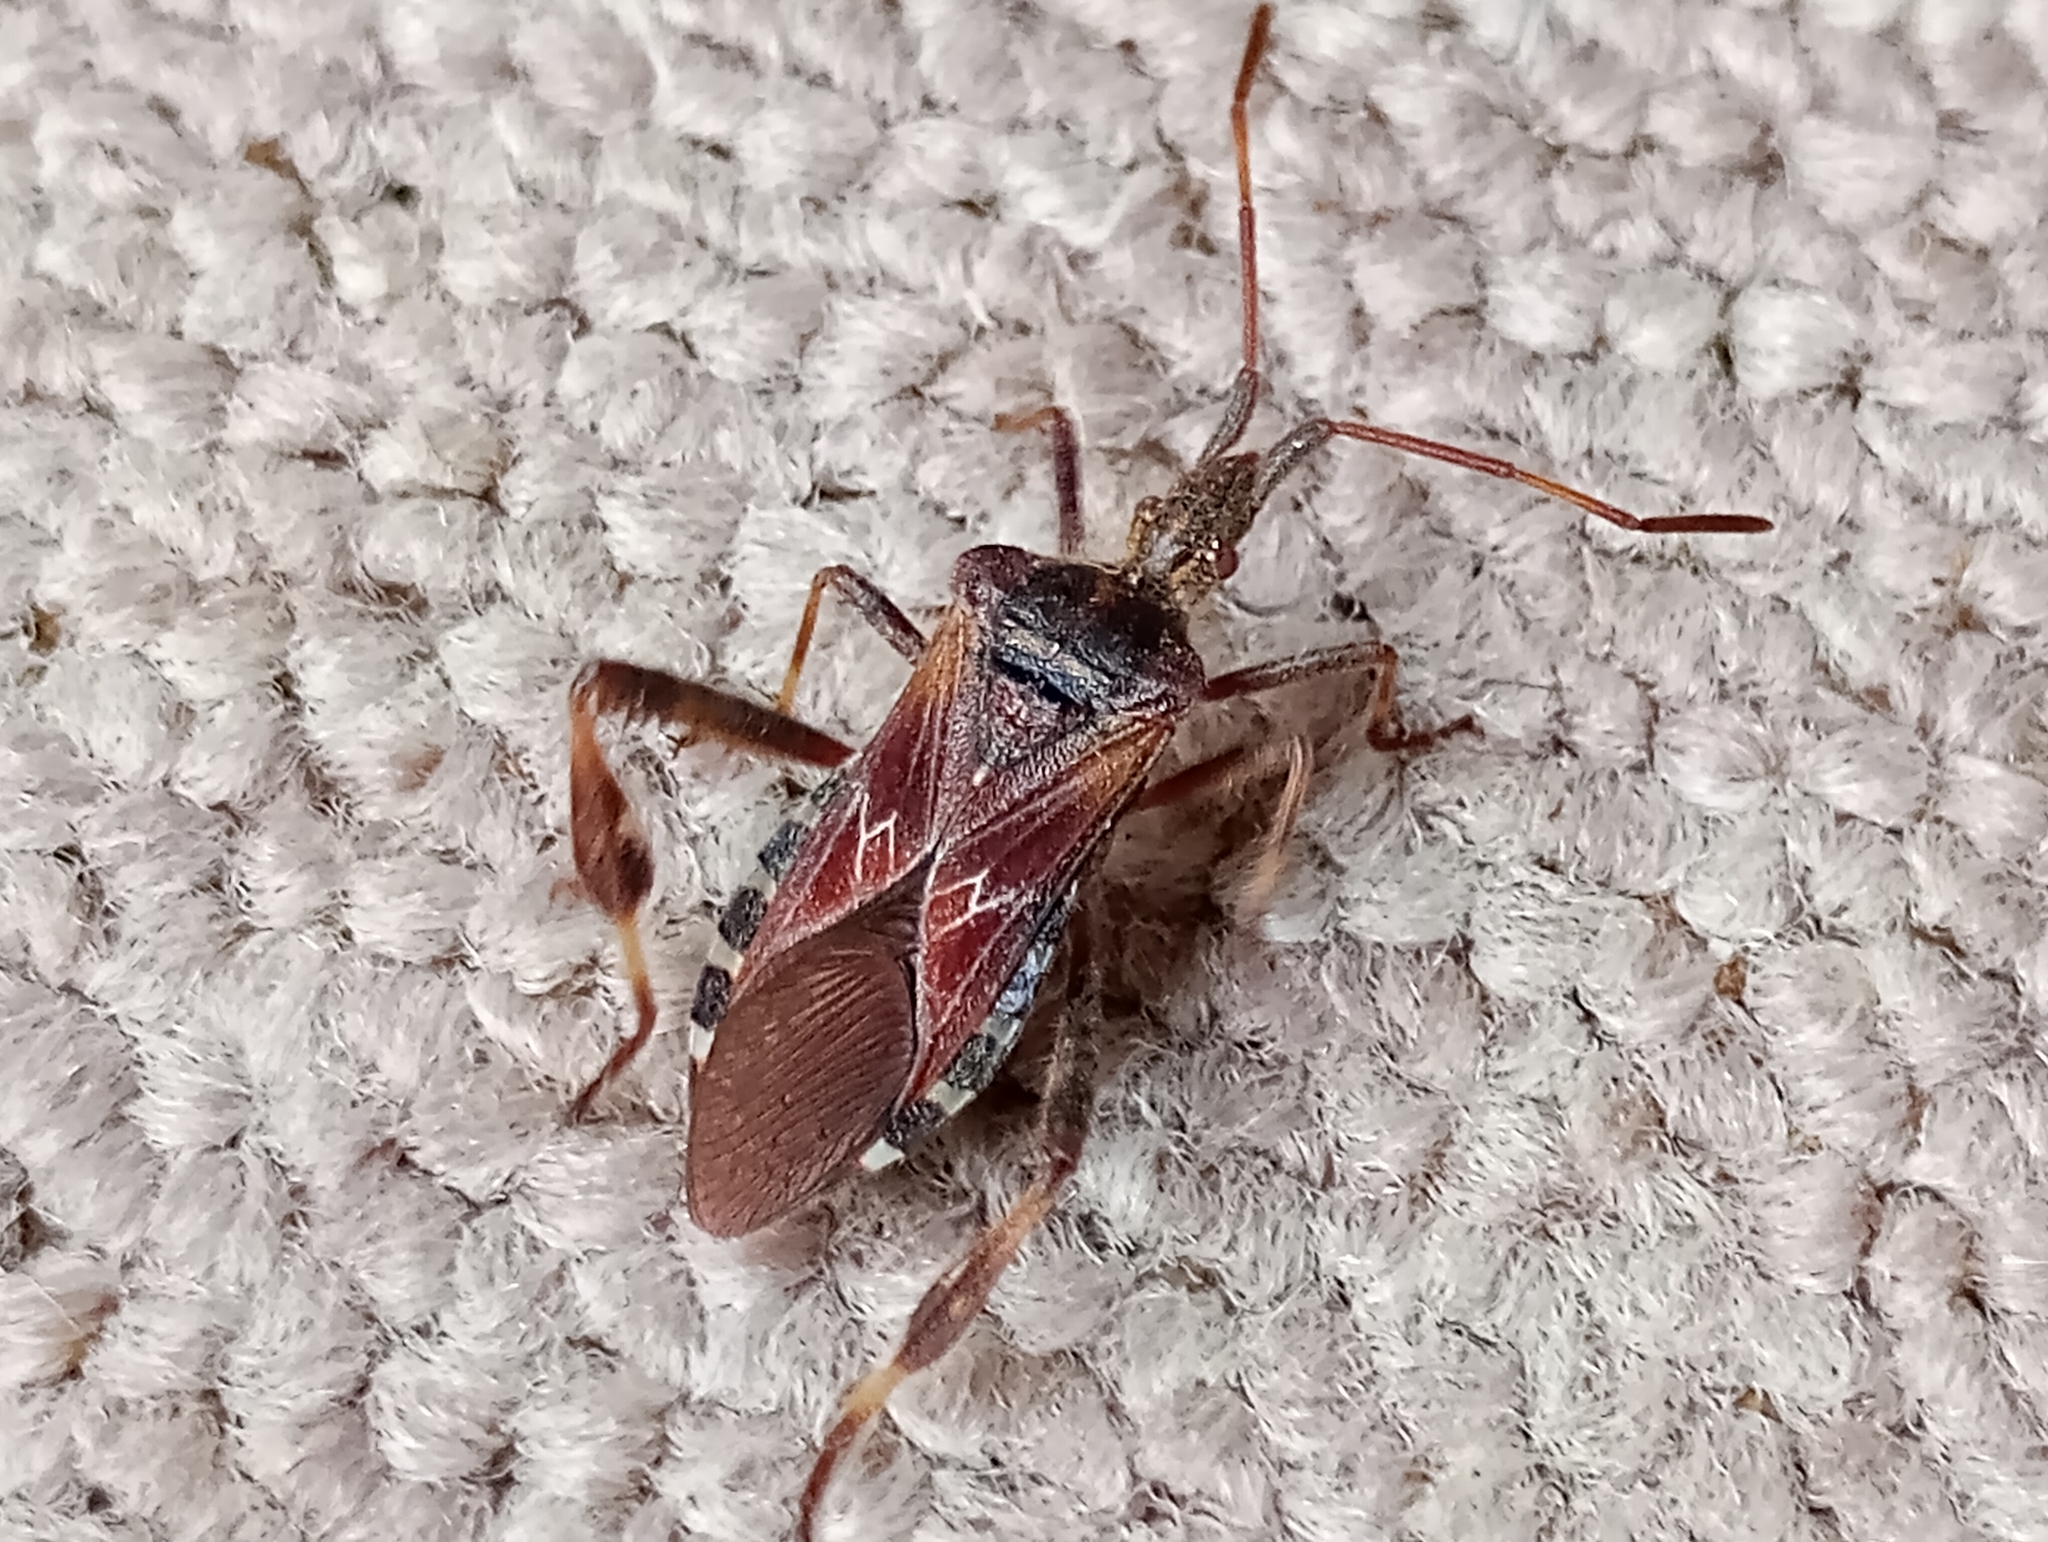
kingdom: Animalia
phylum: Arthropoda
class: Insecta
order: Hemiptera
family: Coreidae
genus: Leptoglossus
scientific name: Leptoglossus occidentalis
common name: Western conifer-seed bug
